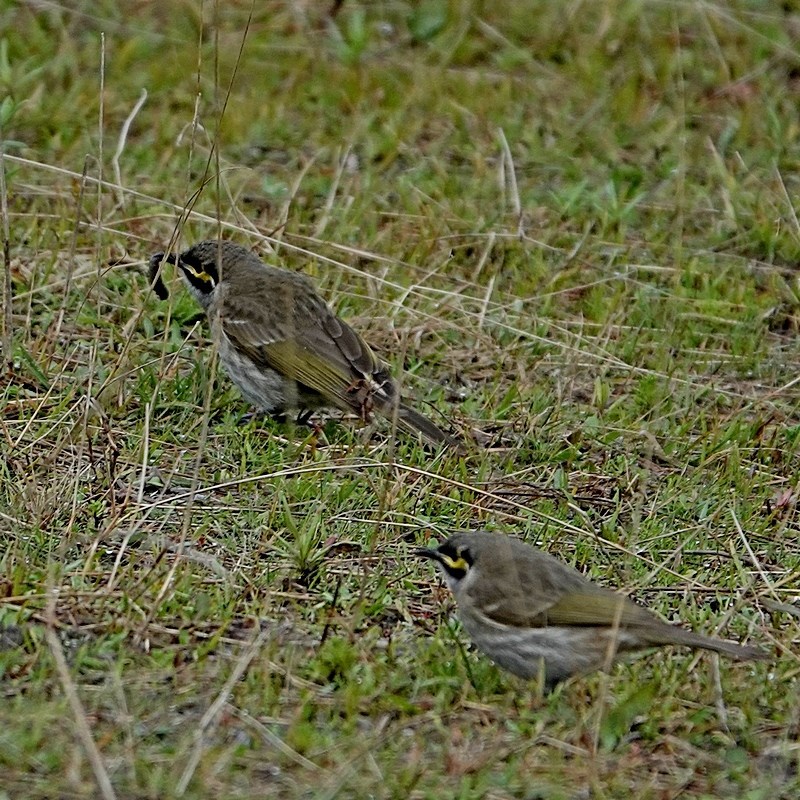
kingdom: Animalia
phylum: Chordata
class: Aves
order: Passeriformes
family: Meliphagidae
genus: Caligavis
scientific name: Caligavis chrysops
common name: Yellow-faced honeyeater
